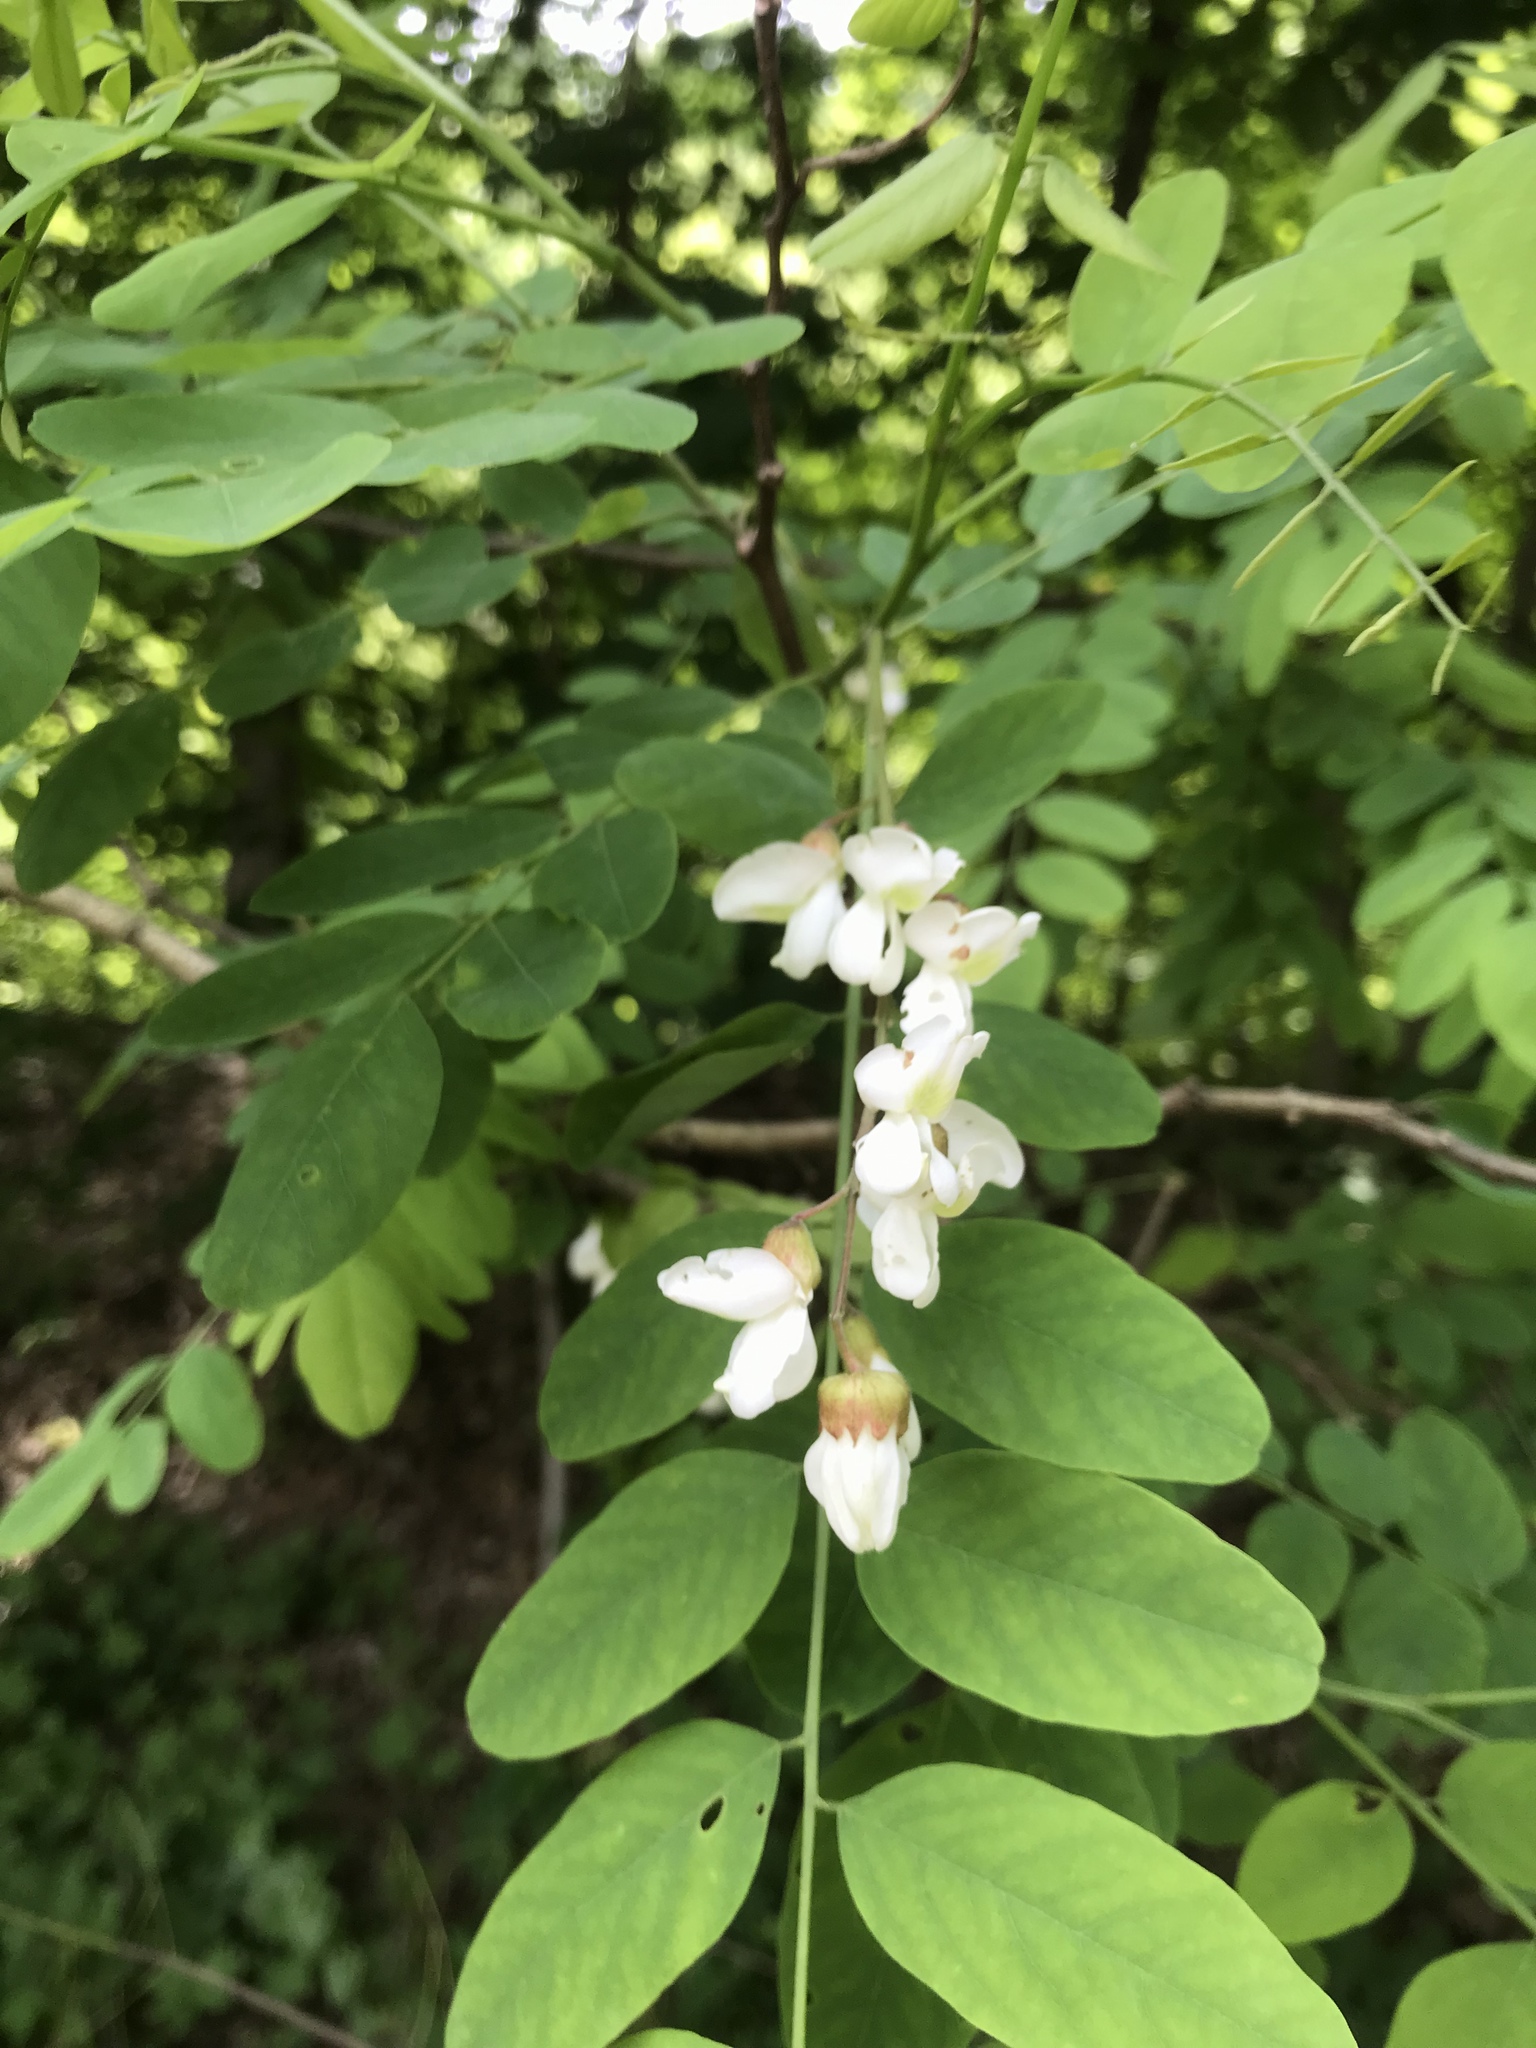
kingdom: Plantae
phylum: Tracheophyta
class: Magnoliopsida
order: Fabales
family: Fabaceae
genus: Robinia
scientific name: Robinia pseudoacacia
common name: Black locust
